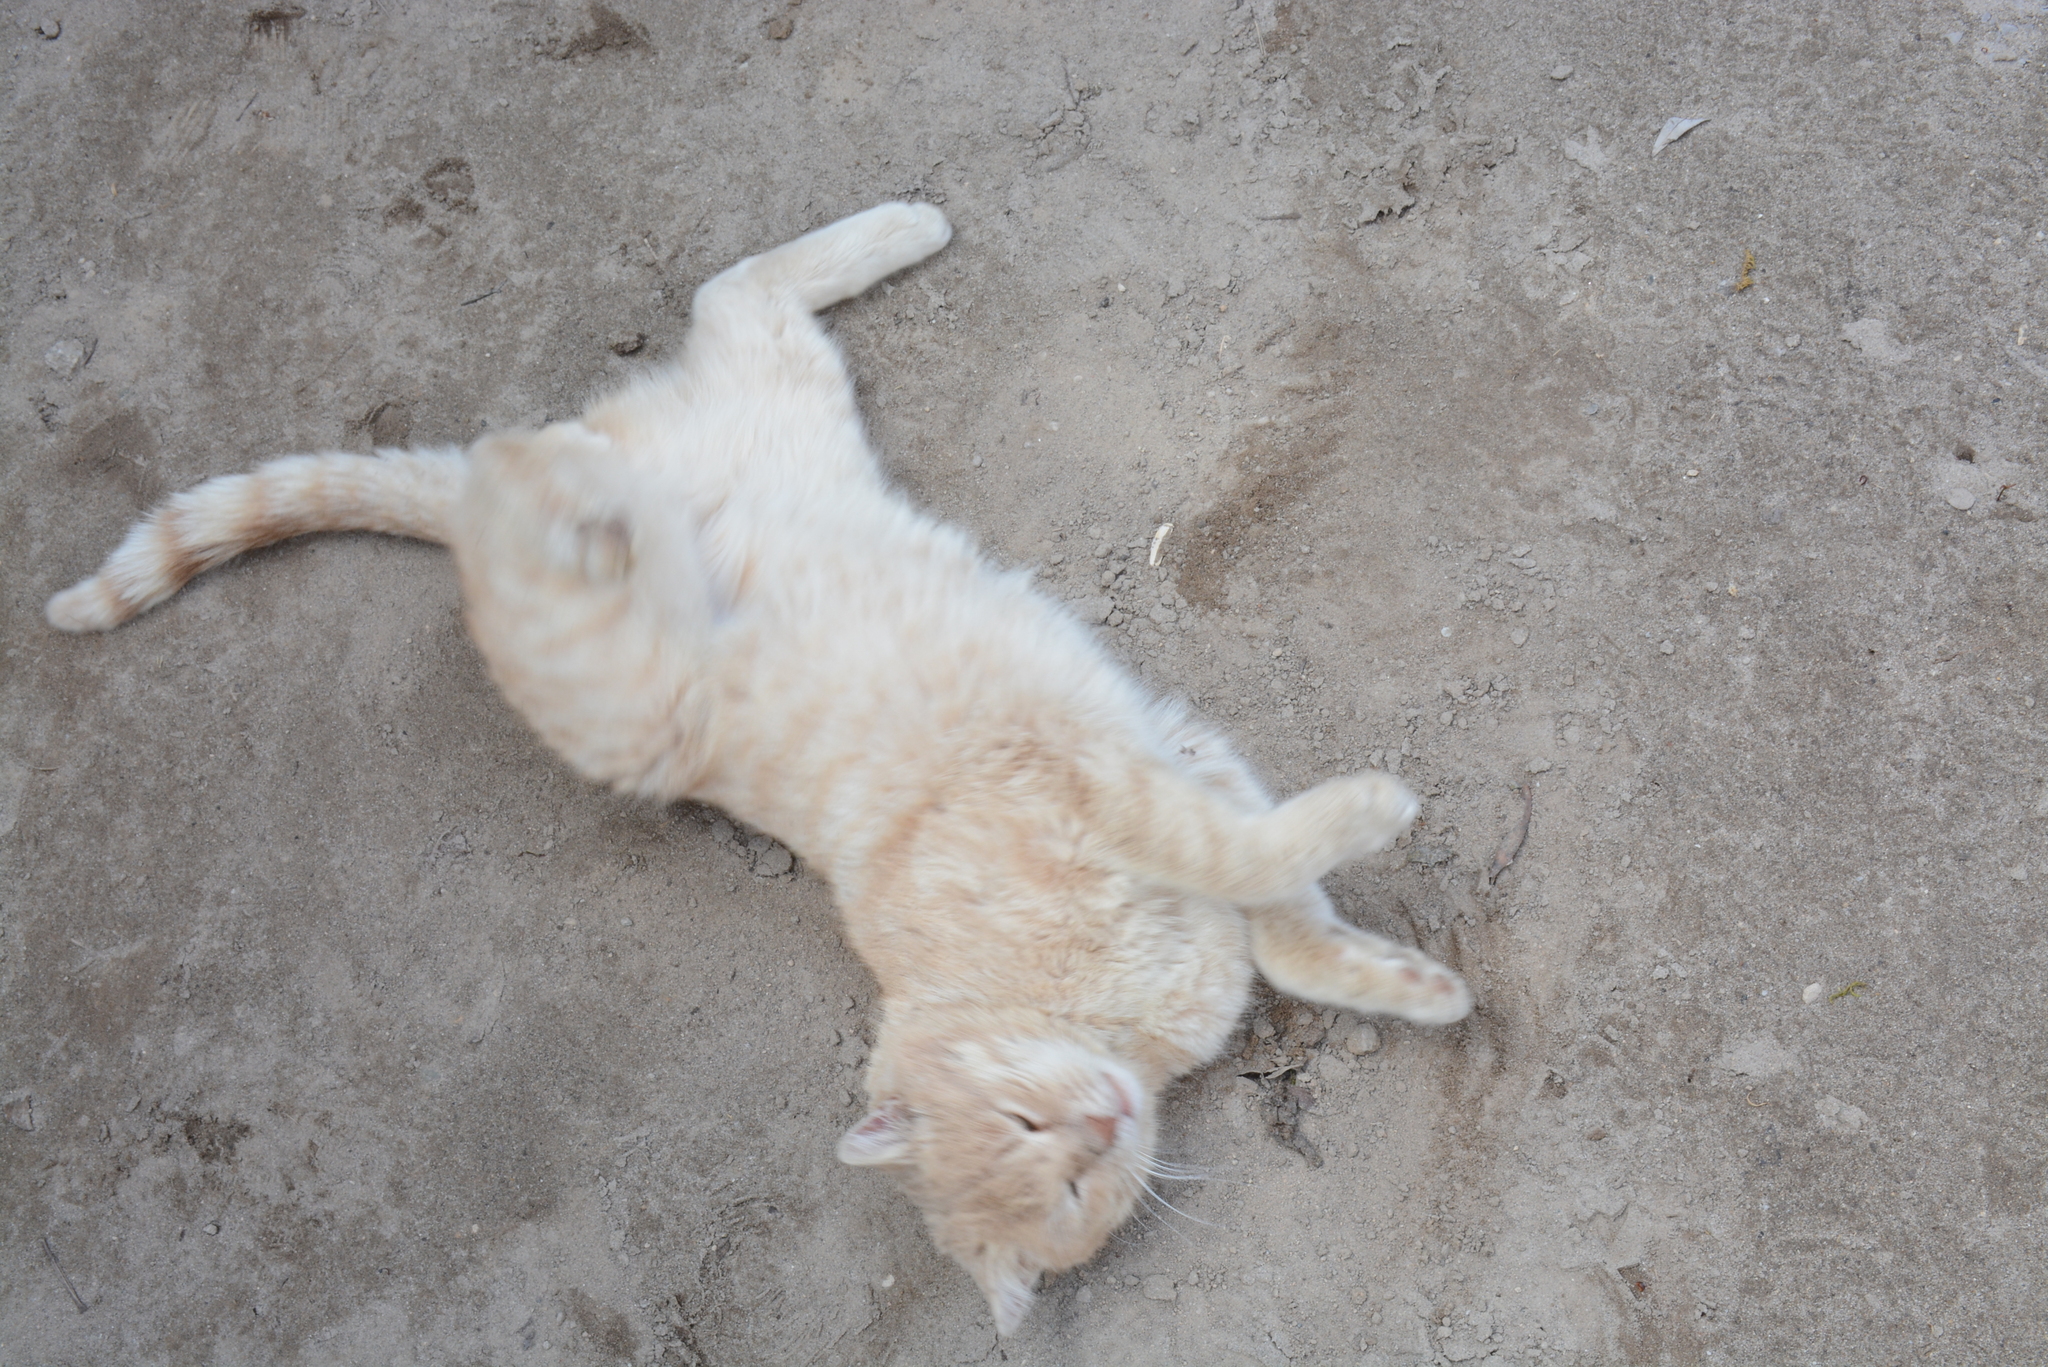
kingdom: Animalia
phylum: Chordata
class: Mammalia
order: Carnivora
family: Felidae
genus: Felis
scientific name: Felis catus
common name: Domestic cat
